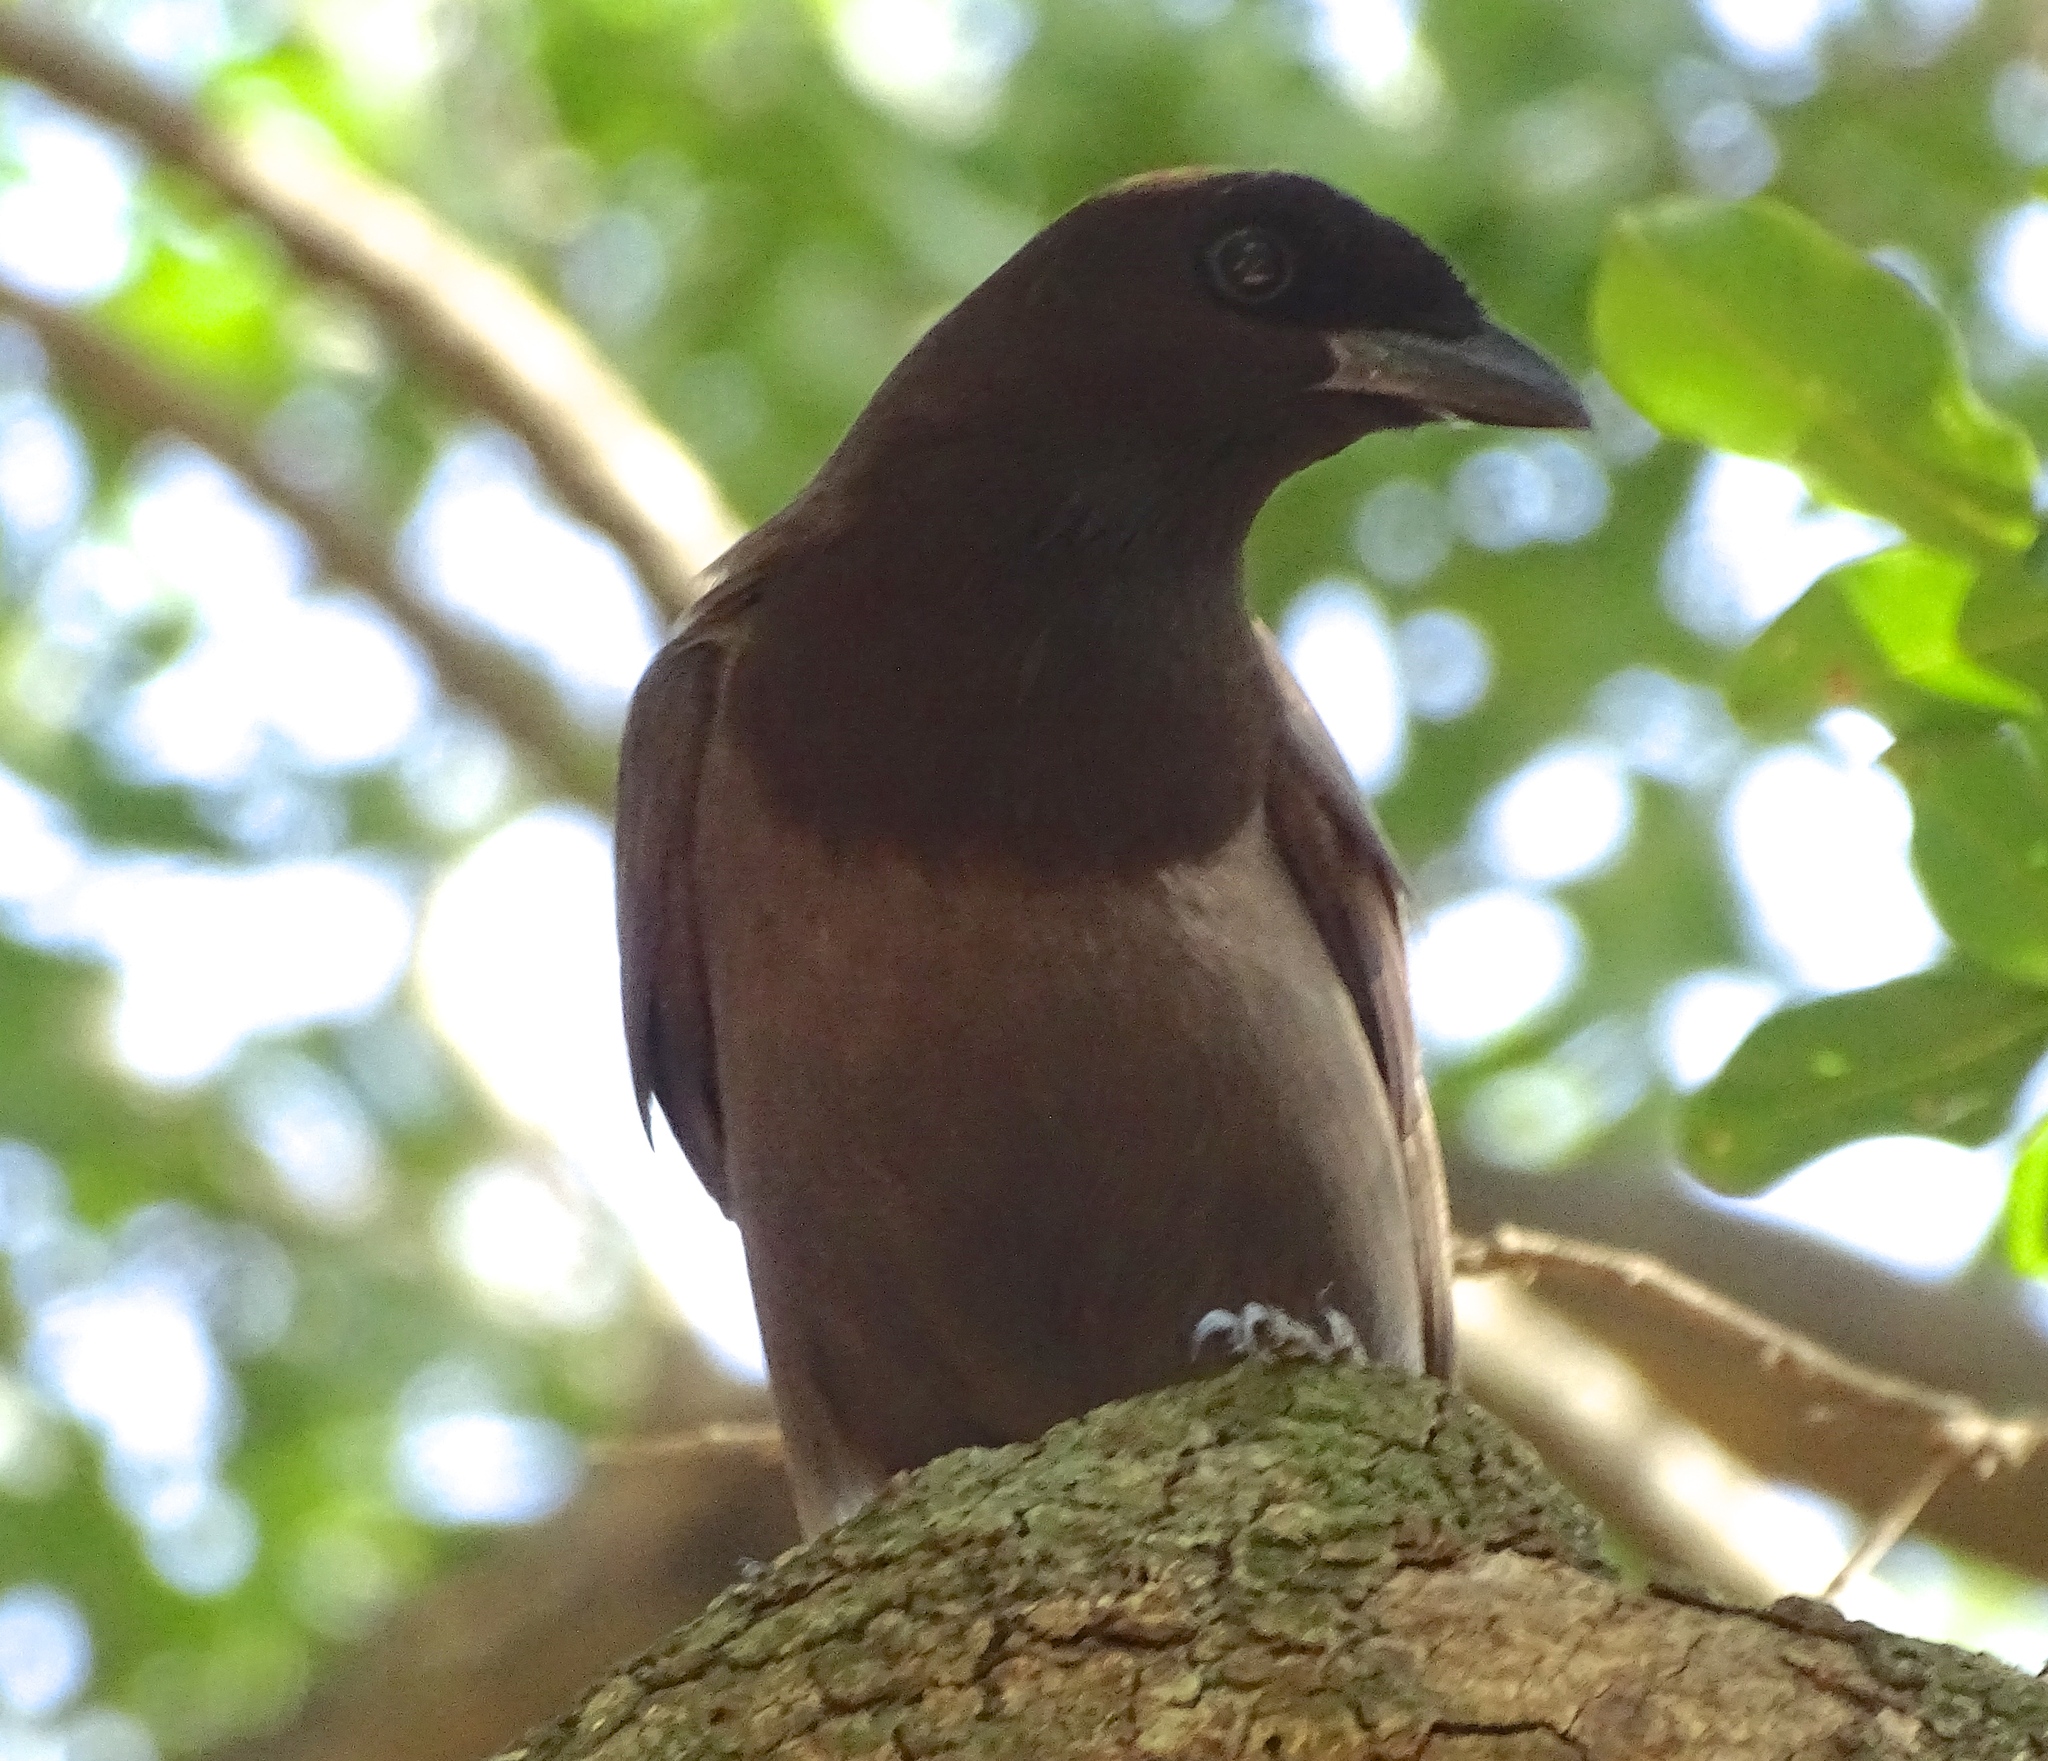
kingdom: Animalia
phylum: Chordata
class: Aves
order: Passeriformes
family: Corvidae
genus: Cyanocorax
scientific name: Cyanocorax cyanomelas
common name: Purplish jay
